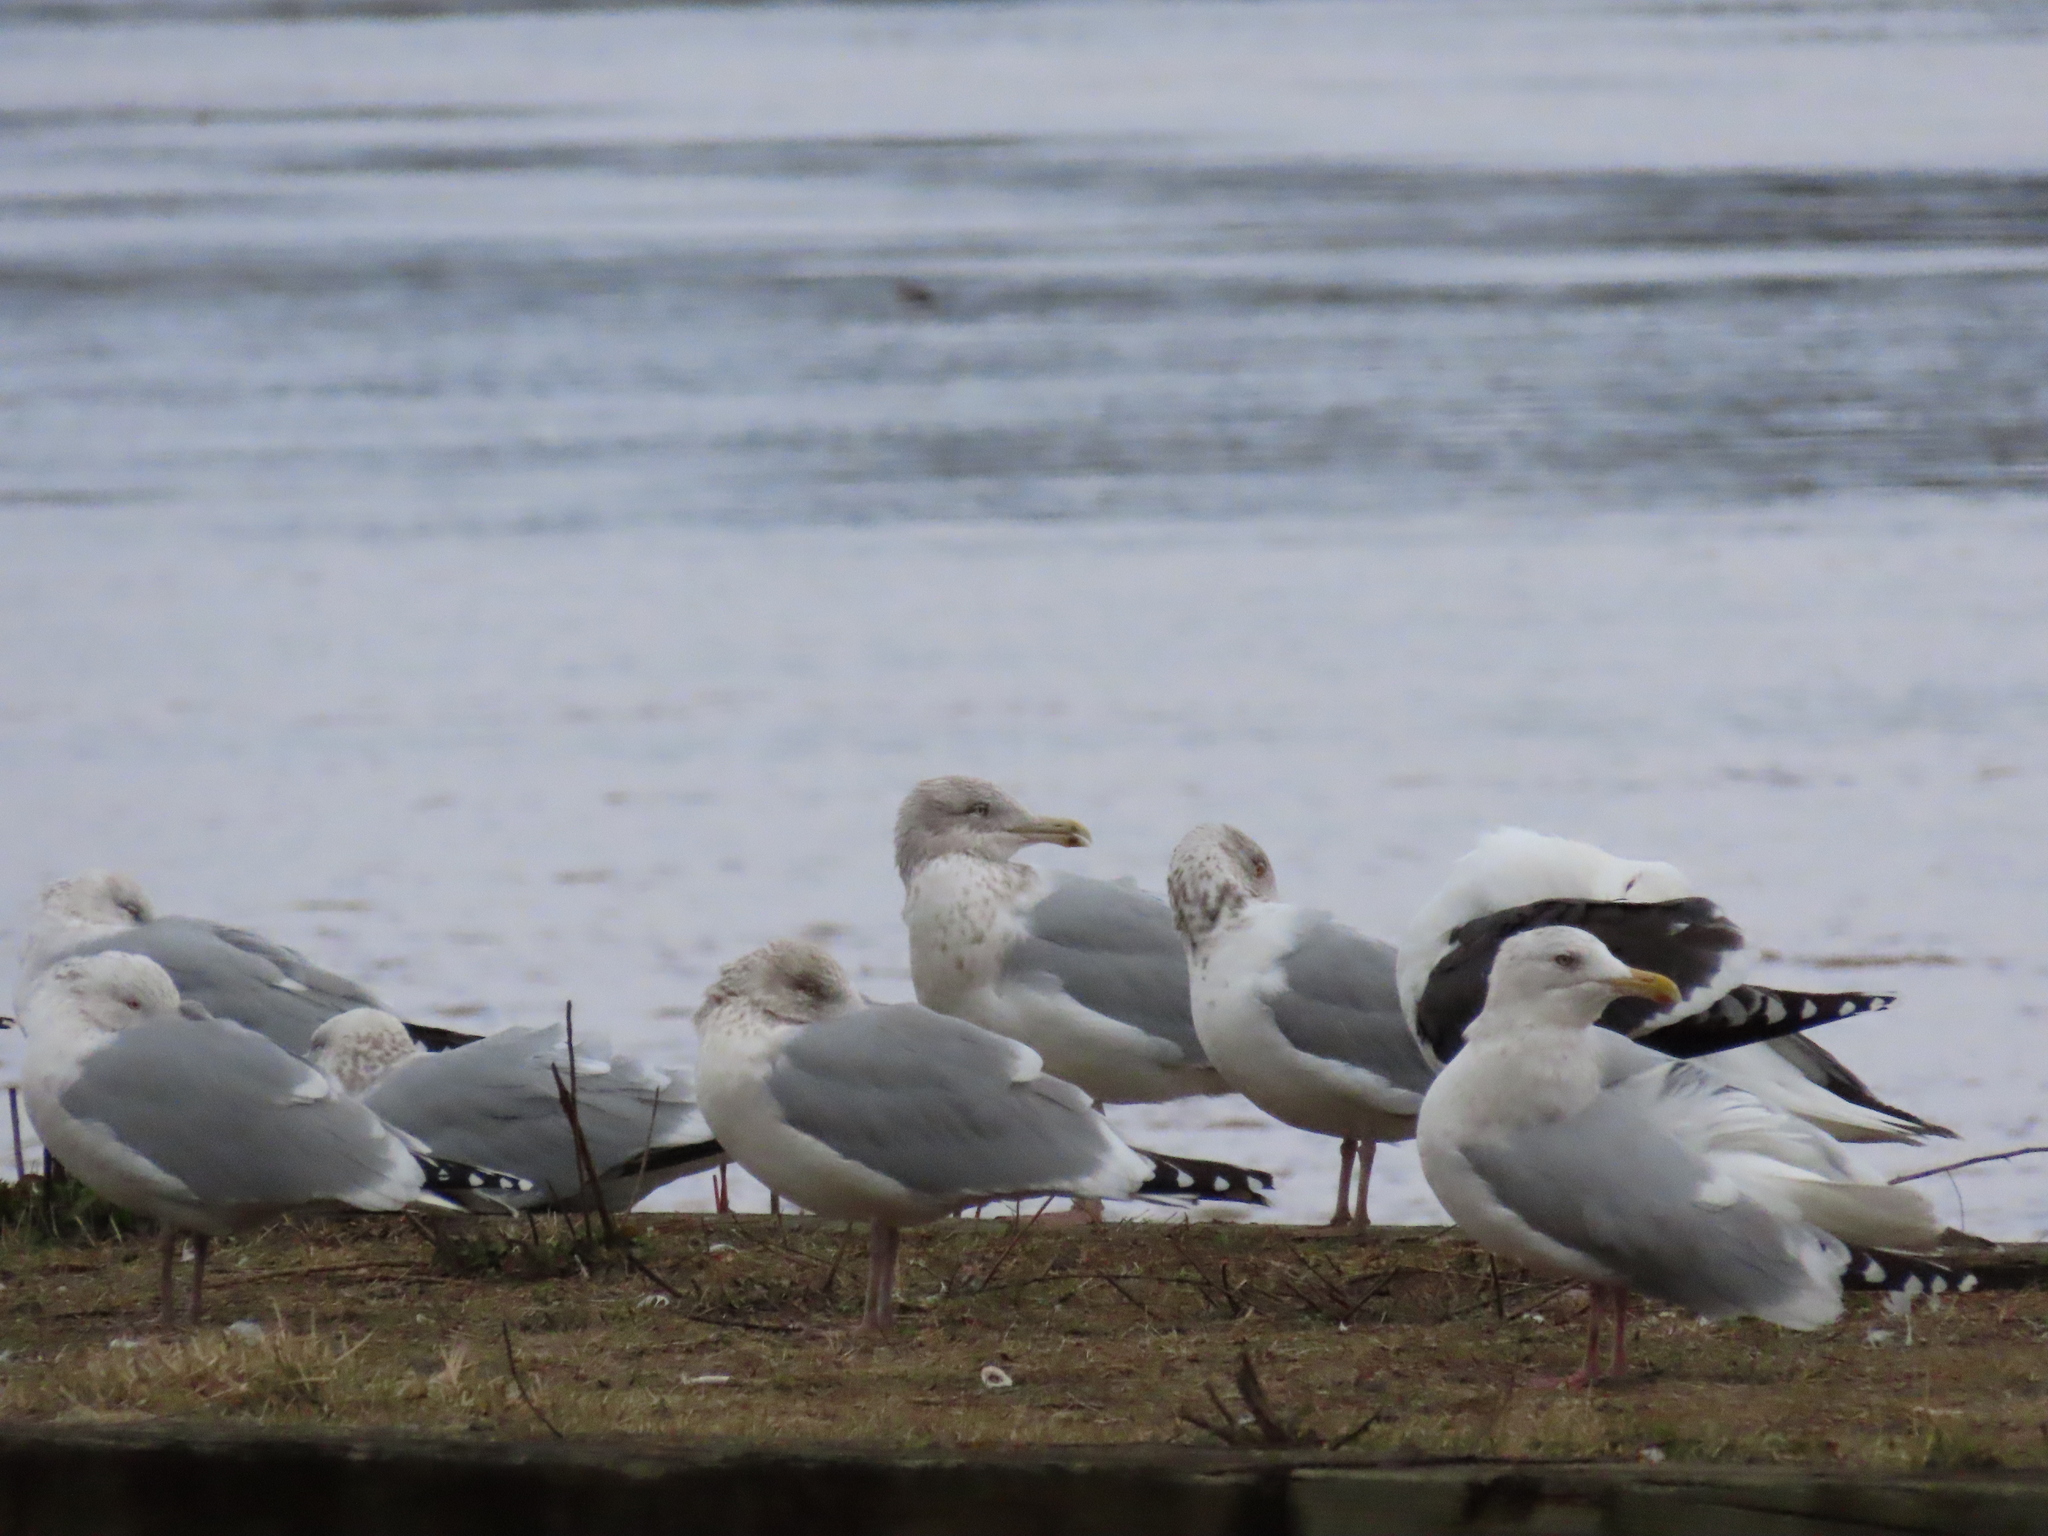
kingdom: Animalia
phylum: Chordata
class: Aves
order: Charadriiformes
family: Laridae
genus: Larus
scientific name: Larus argentatus
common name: Herring gull
